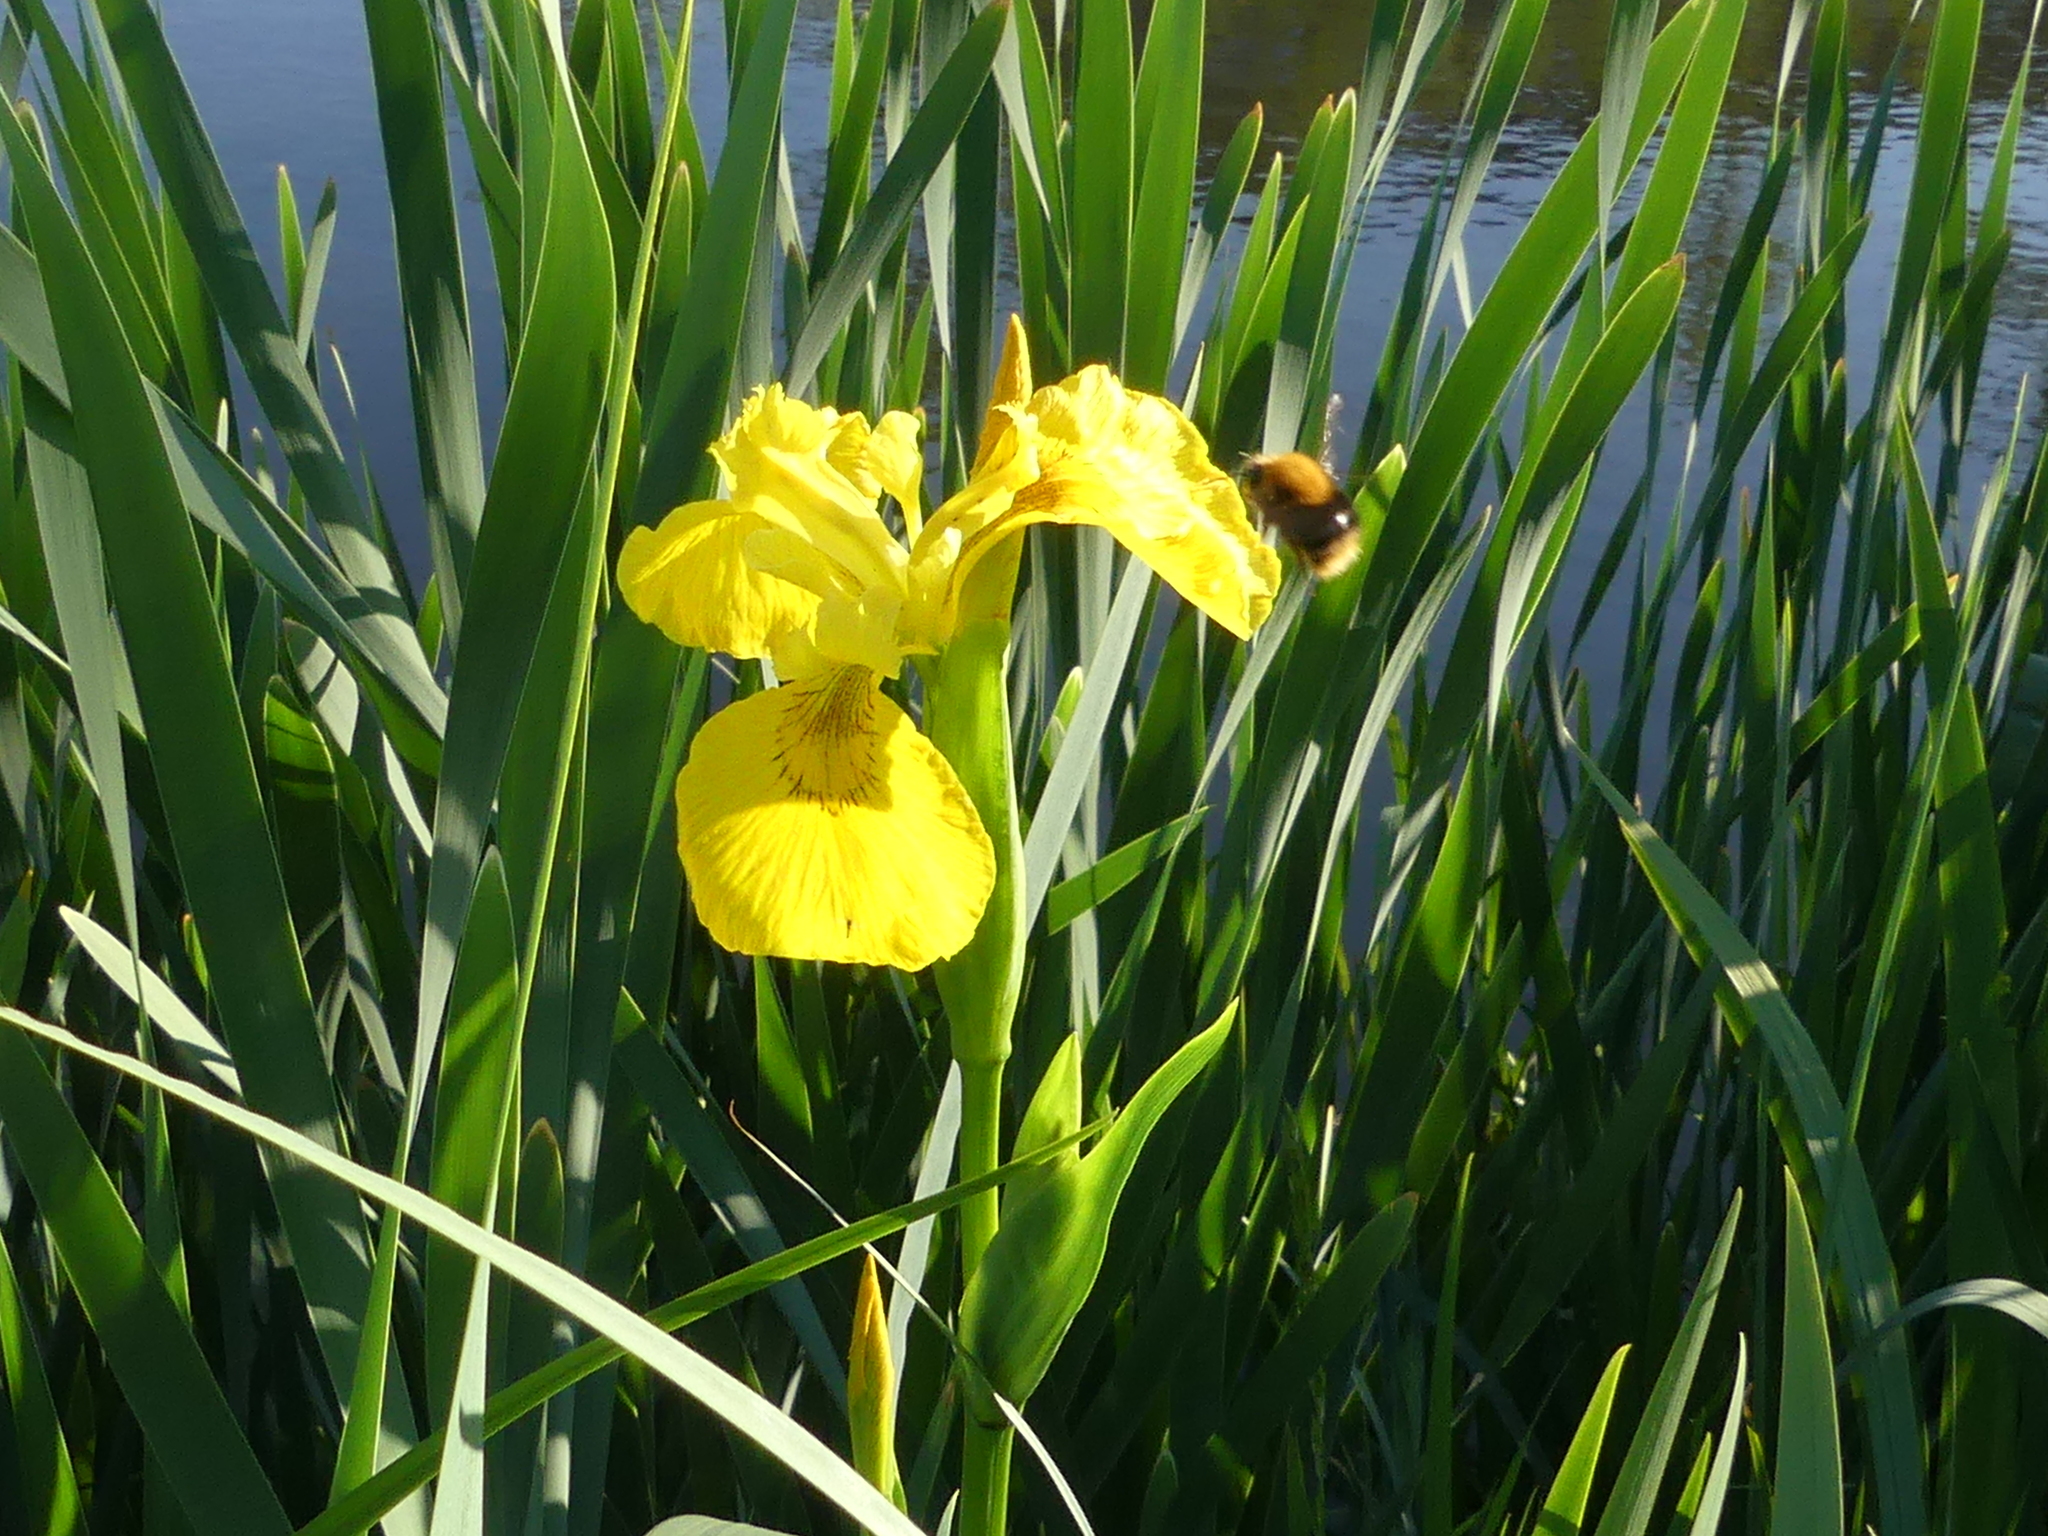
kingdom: Animalia
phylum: Arthropoda
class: Insecta
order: Hymenoptera
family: Apidae
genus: Bombus
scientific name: Bombus pascuorum
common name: Common carder bee
